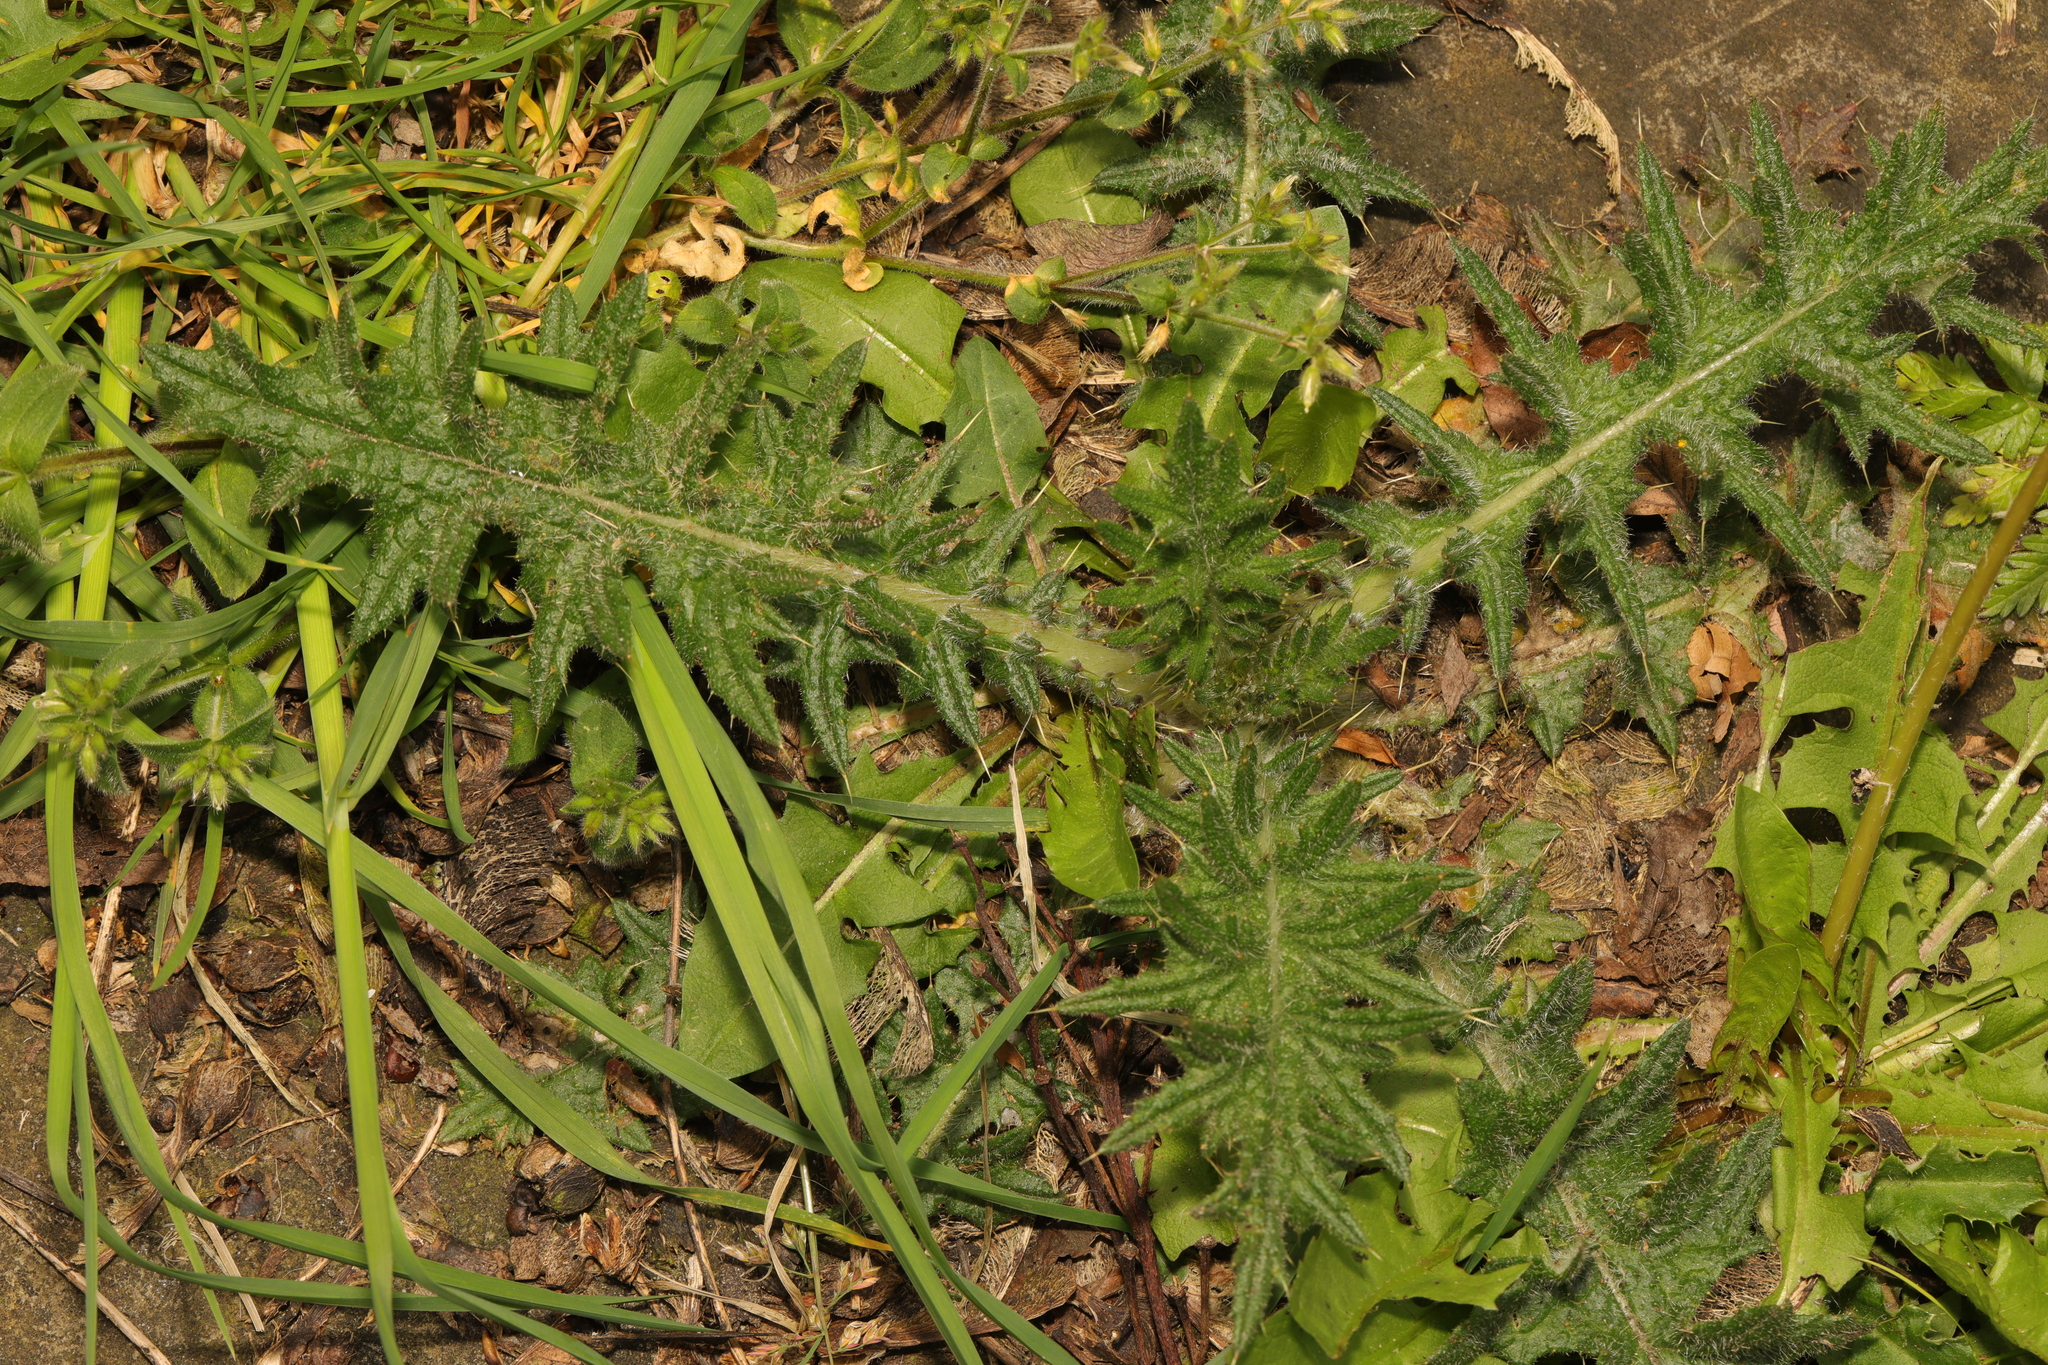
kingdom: Plantae
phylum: Tracheophyta
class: Magnoliopsida
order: Asterales
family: Asteraceae
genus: Cirsium
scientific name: Cirsium vulgare
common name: Bull thistle
